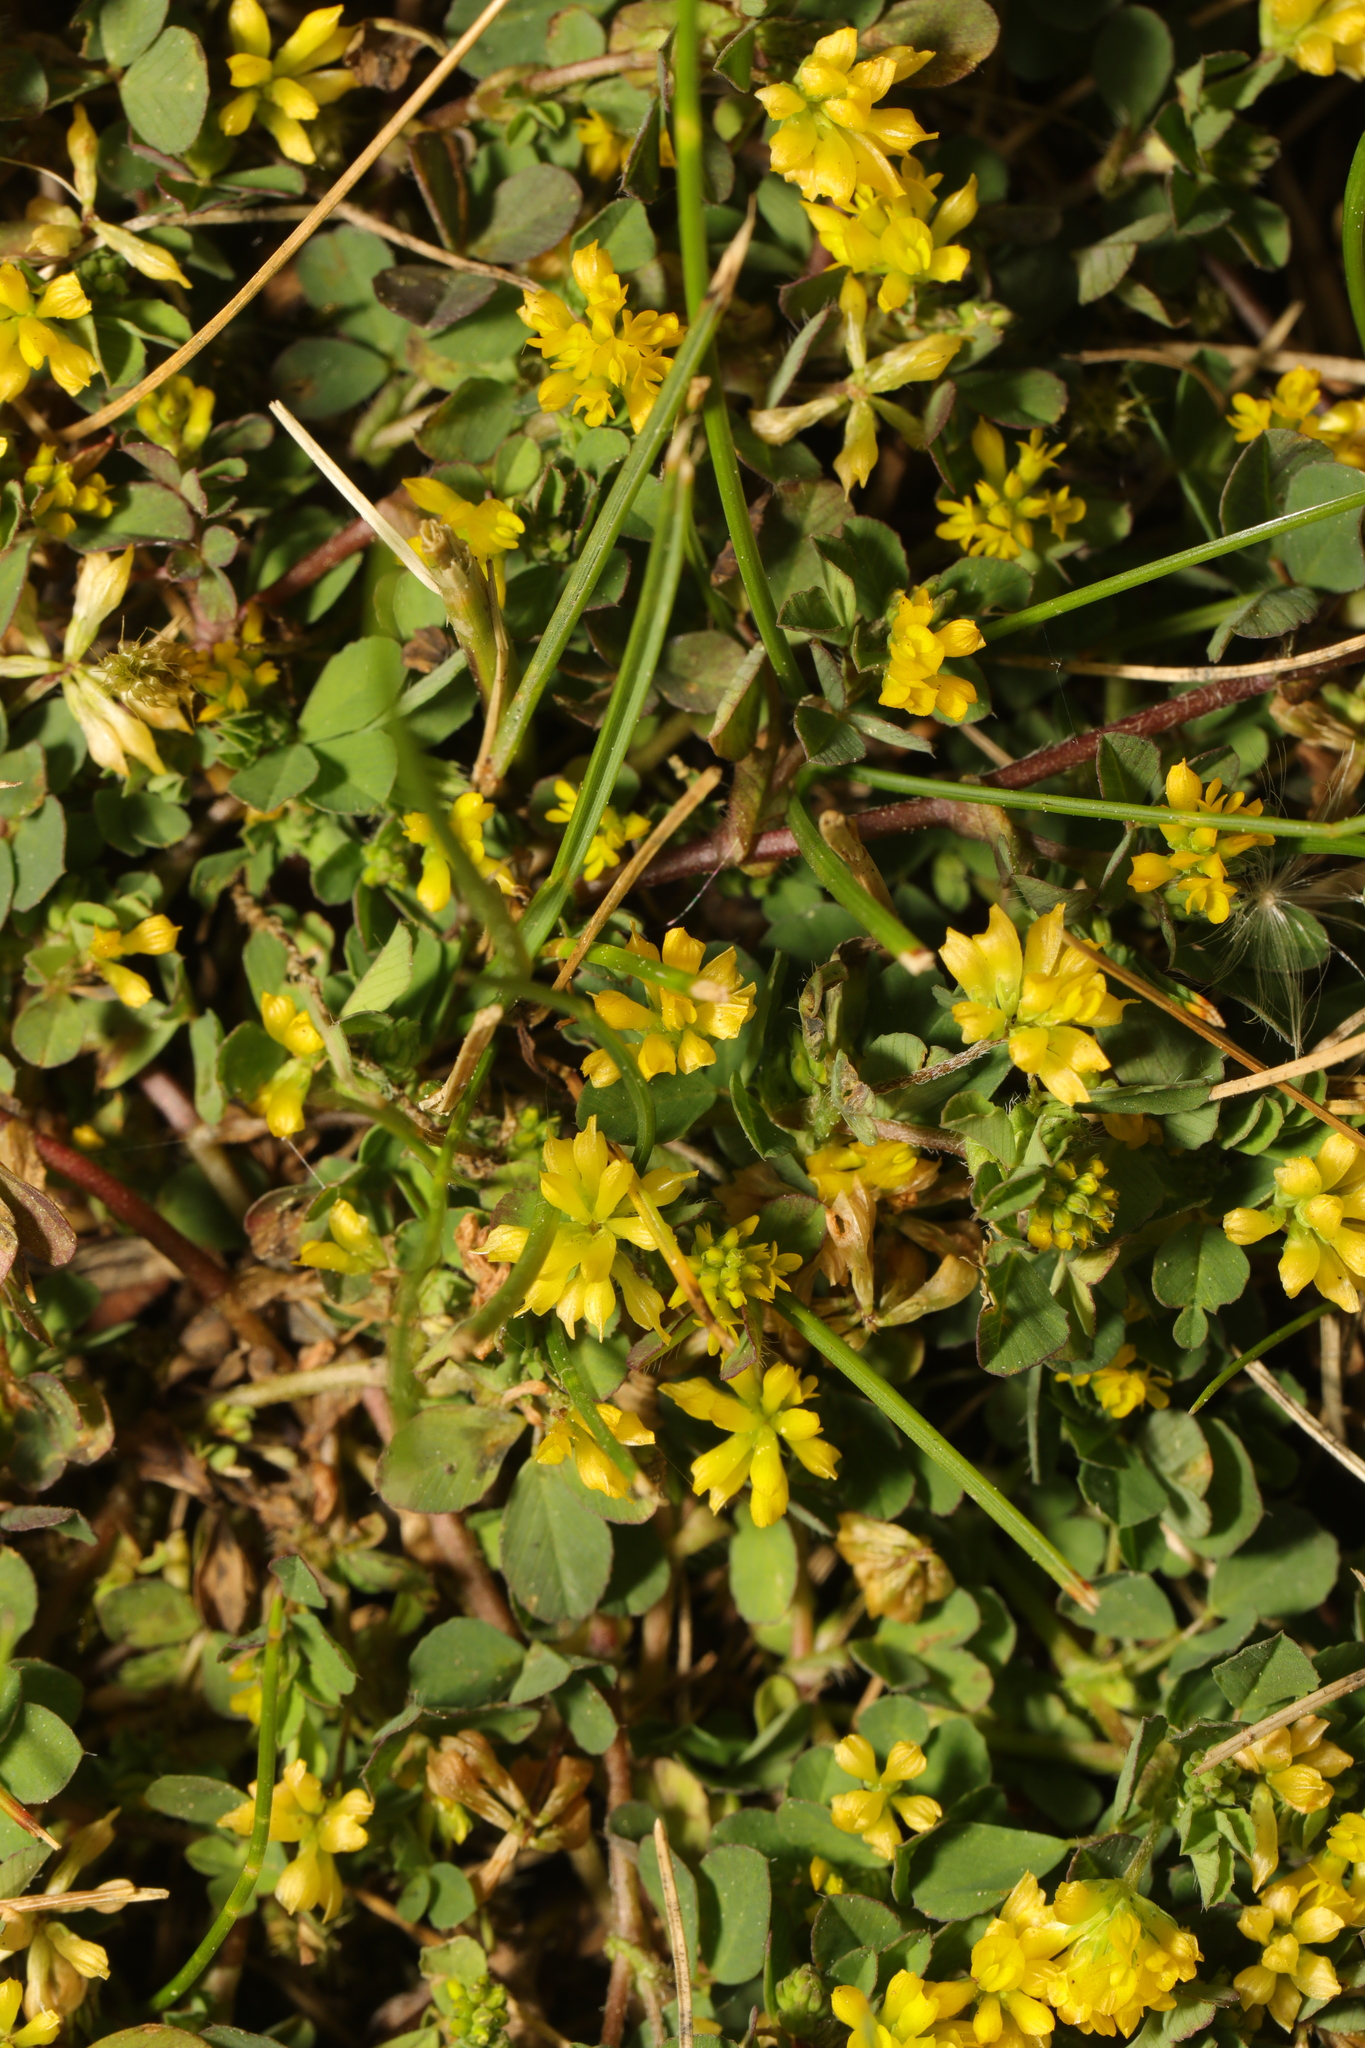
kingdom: Plantae
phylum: Tracheophyta
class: Magnoliopsida
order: Fabales
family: Fabaceae
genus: Trifolium
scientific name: Trifolium dubium
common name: Suckling clover
